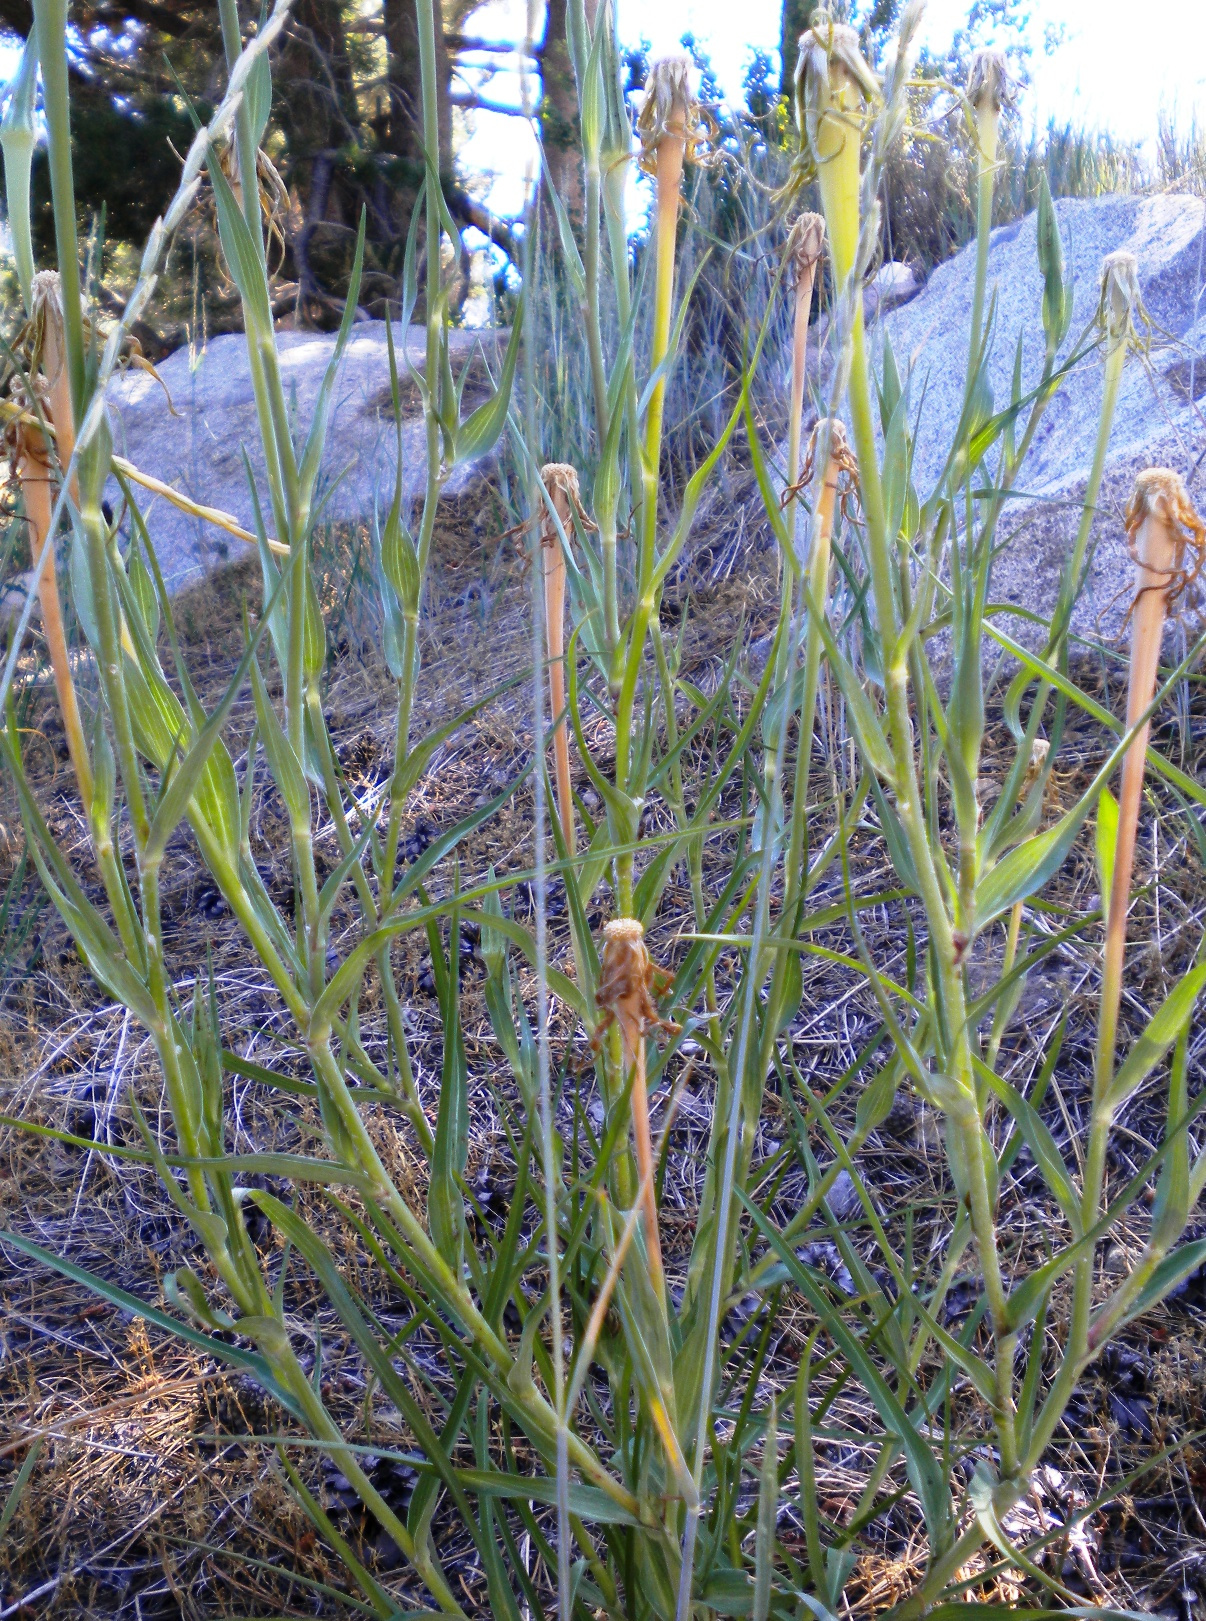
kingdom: Plantae
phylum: Tracheophyta
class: Magnoliopsida
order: Asterales
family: Asteraceae
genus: Tragopogon
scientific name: Tragopogon dubius
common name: Yellow salsify
